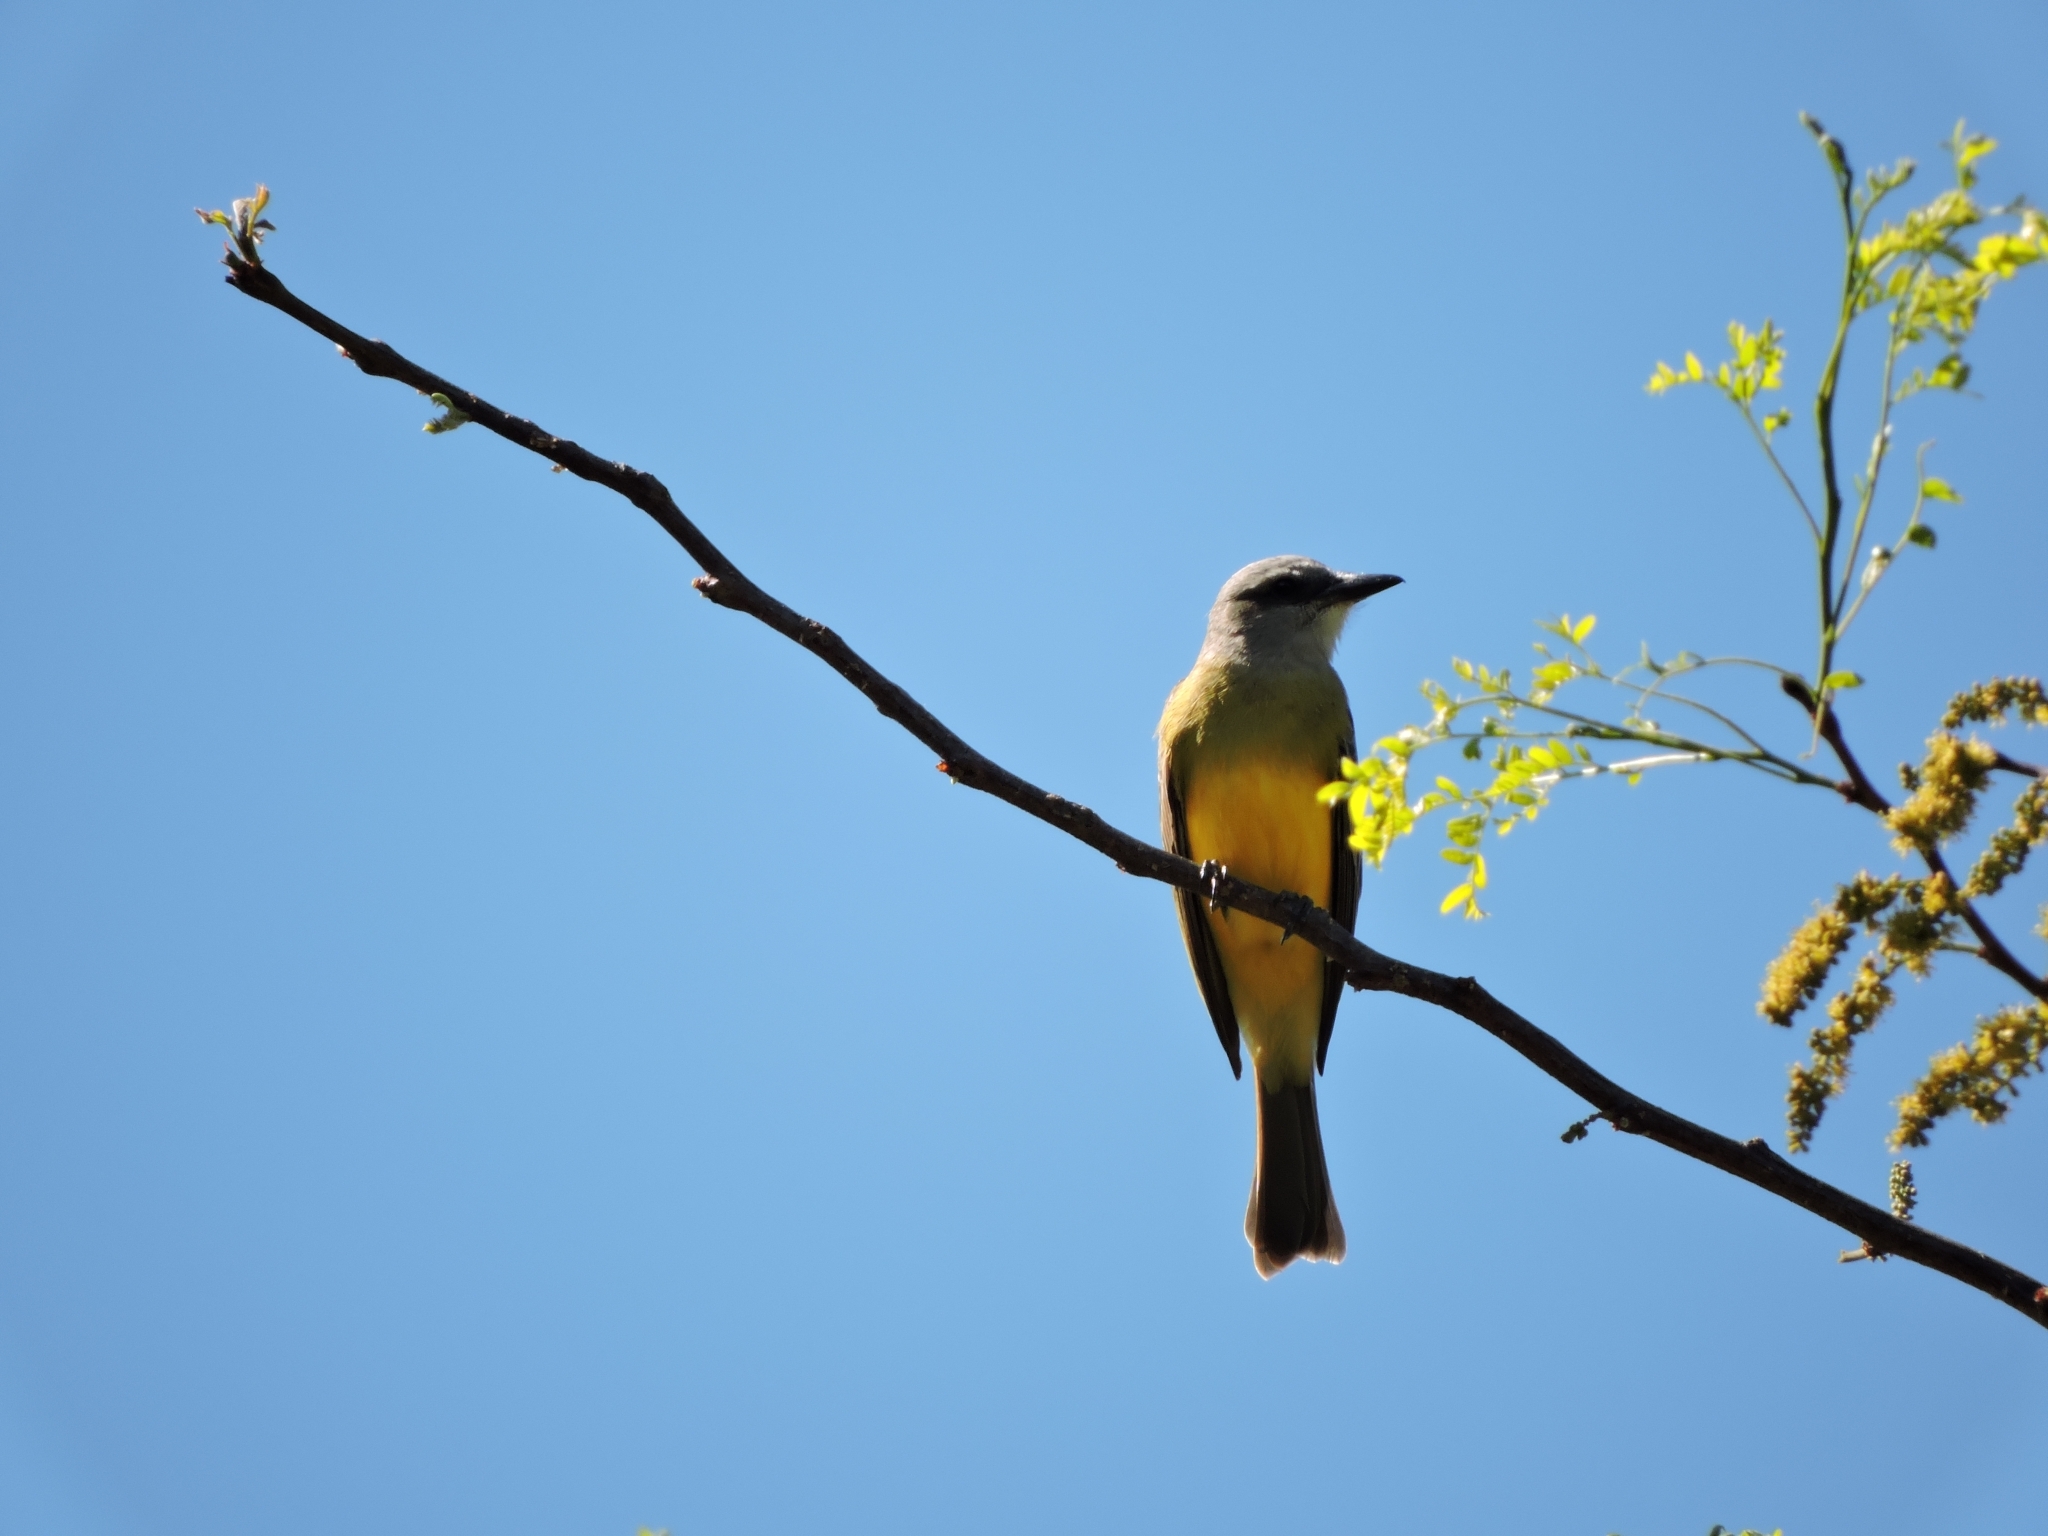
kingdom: Animalia
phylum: Chordata
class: Aves
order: Passeriformes
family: Tyrannidae
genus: Tyrannus
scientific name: Tyrannus melancholicus
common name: Tropical kingbird
